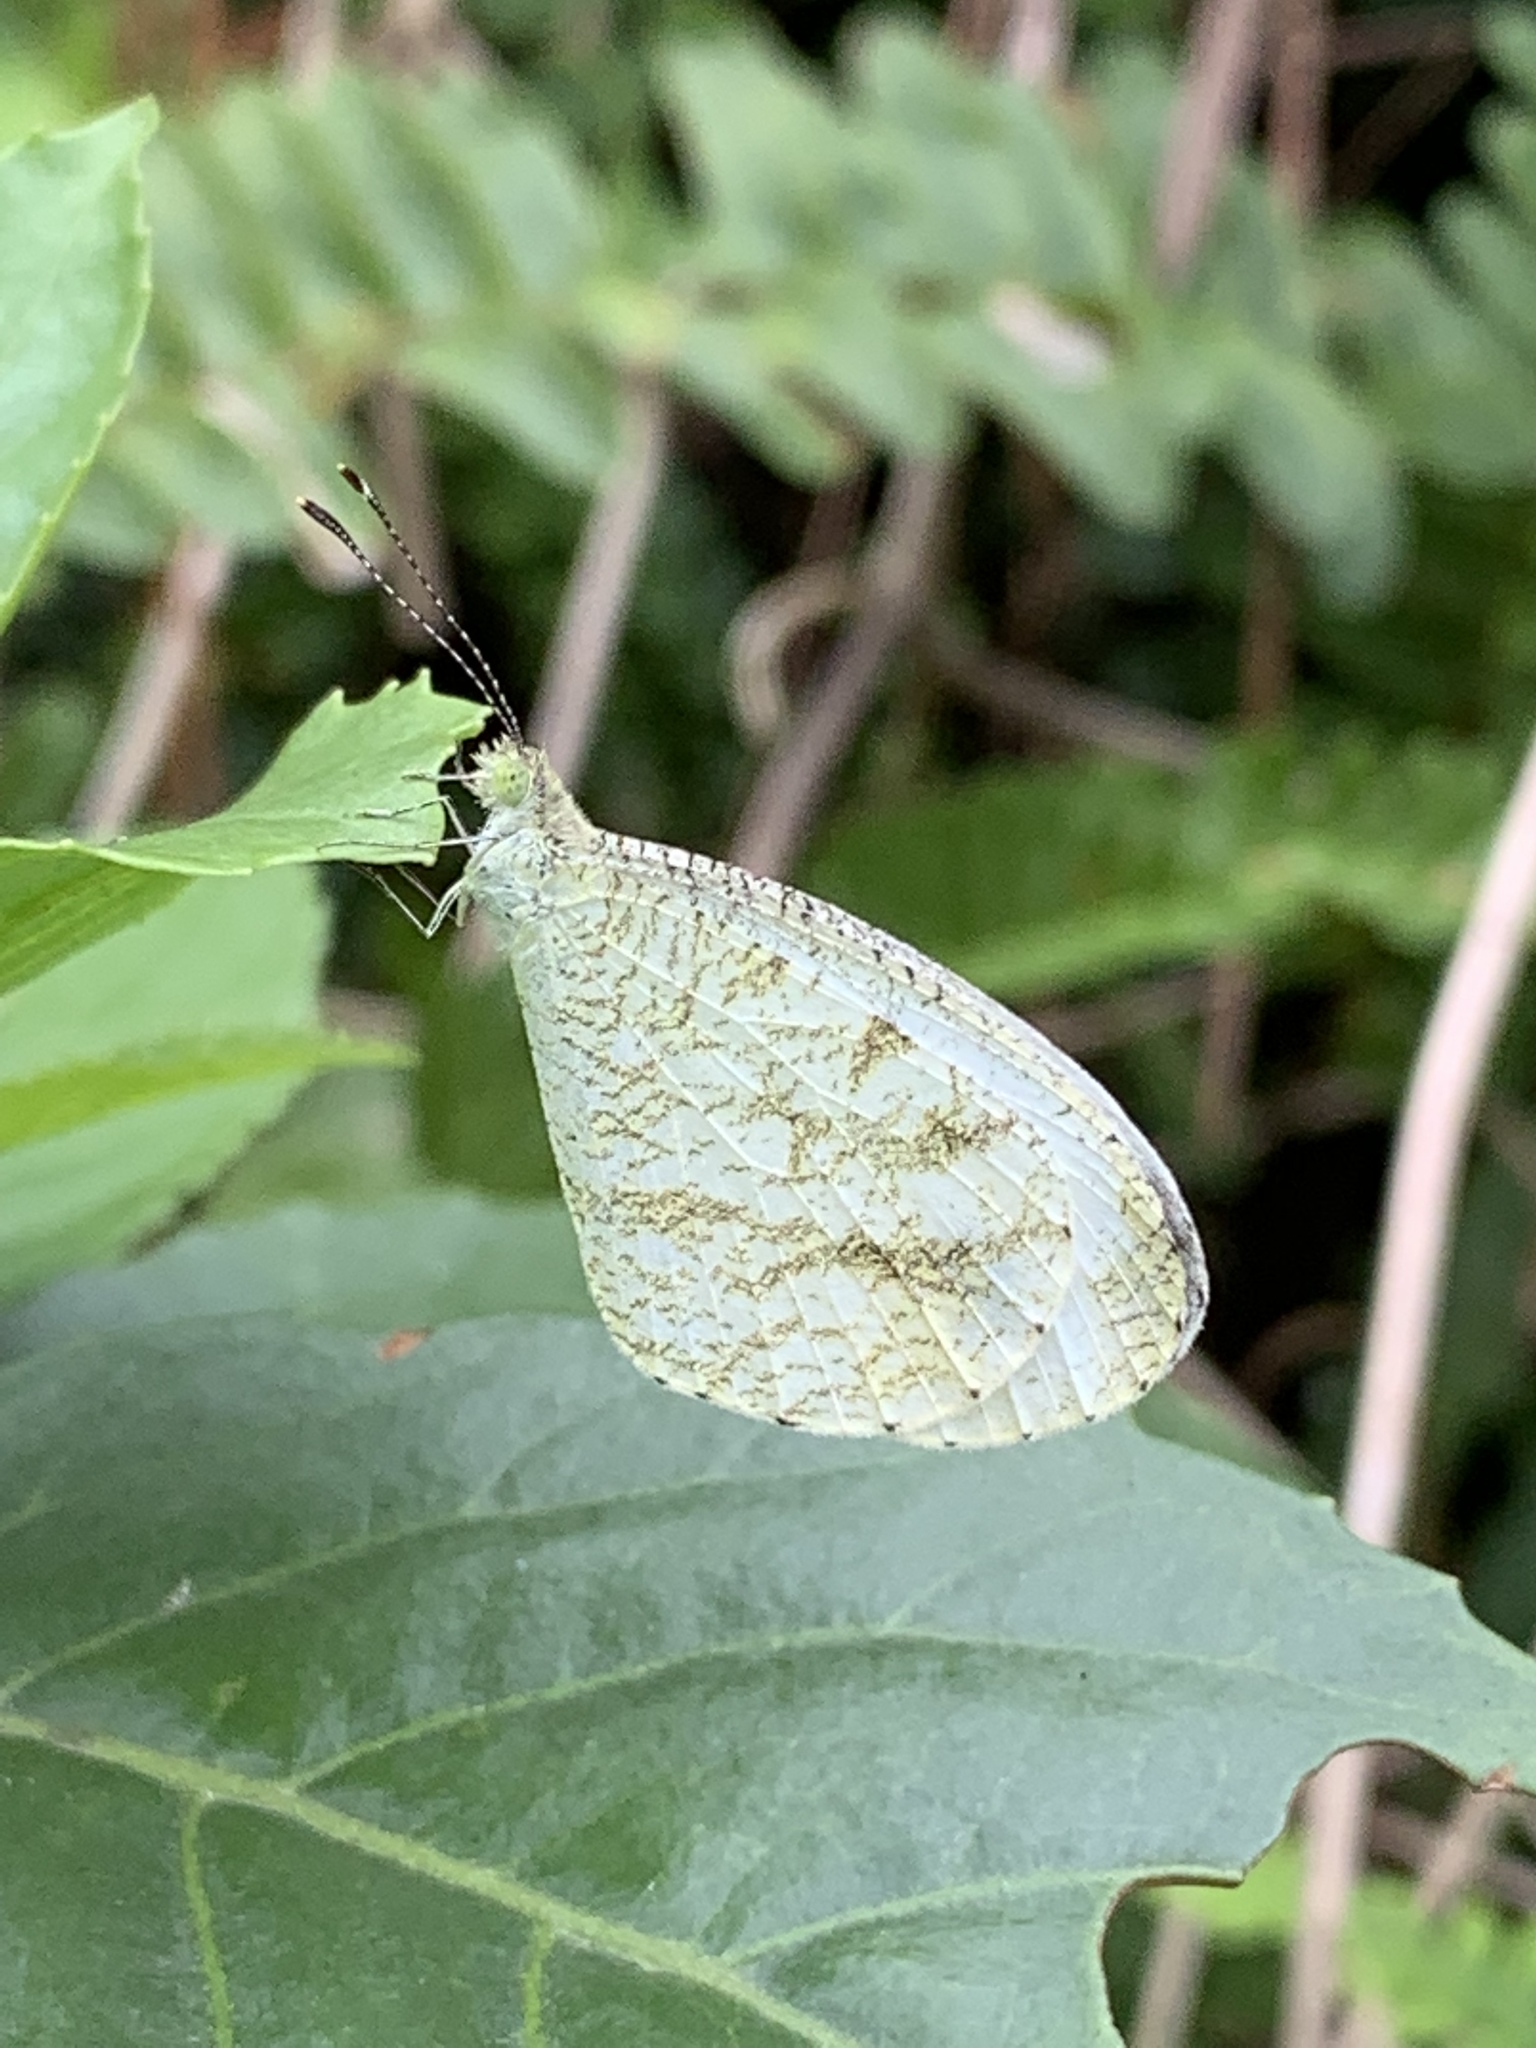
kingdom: Animalia
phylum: Arthropoda
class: Insecta
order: Lepidoptera
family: Pieridae
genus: Leptosia
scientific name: Leptosia nina
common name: Psyche
